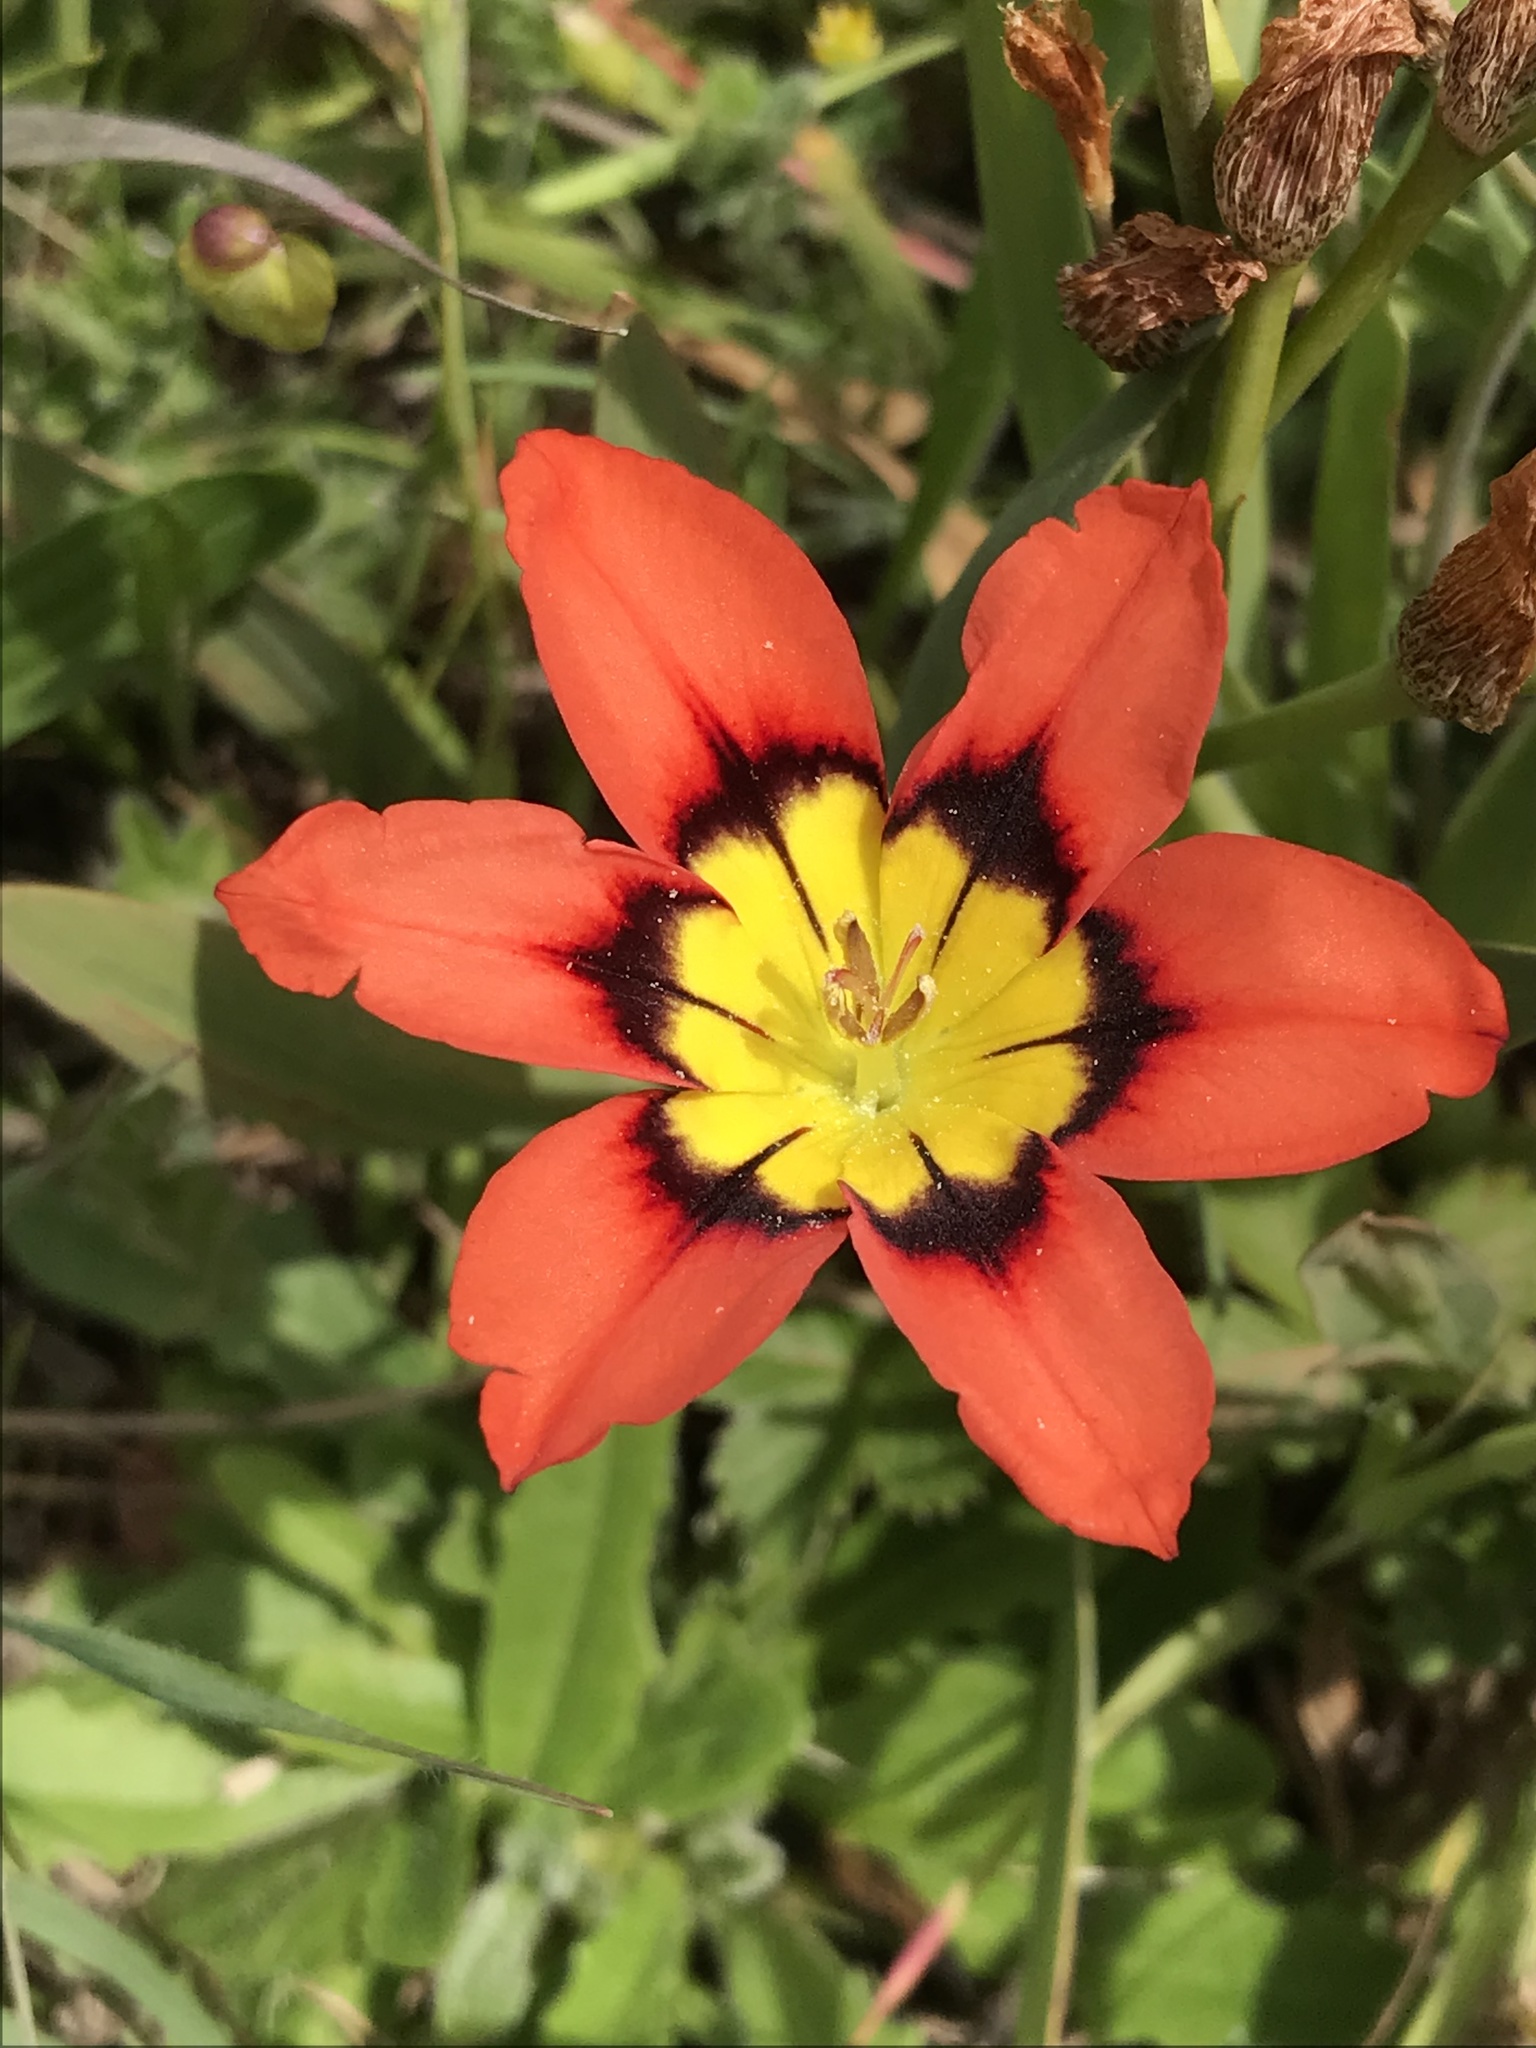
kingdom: Plantae
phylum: Tracheophyta
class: Liliopsida
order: Asparagales
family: Iridaceae
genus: Sparaxis
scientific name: Sparaxis tricolor
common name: Wandflower
